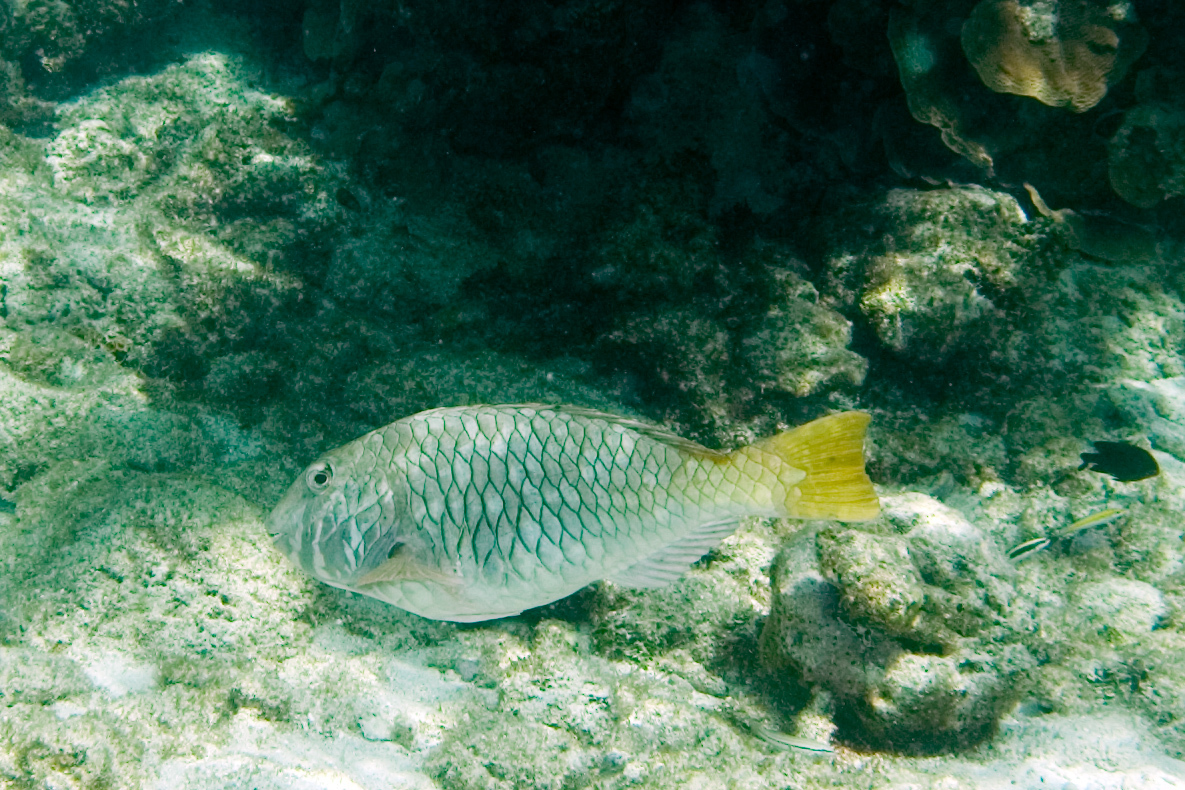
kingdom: Animalia
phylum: Chordata
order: Perciformes
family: Scaridae
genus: Sparisoma
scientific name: Sparisoma rubripinne
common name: Redfin parrotfish
